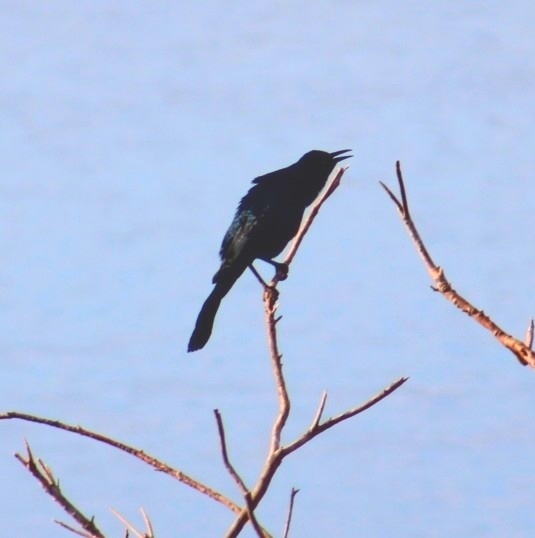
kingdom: Animalia
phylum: Chordata
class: Aves
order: Passeriformes
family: Icteridae
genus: Quiscalus
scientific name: Quiscalus mexicanus
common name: Great-tailed grackle
